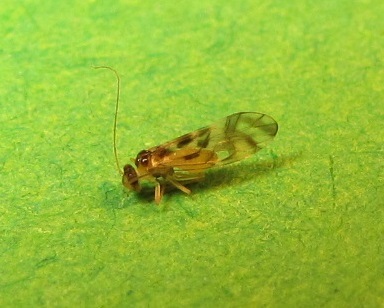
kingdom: Animalia
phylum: Arthropoda
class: Insecta
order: Psocodea
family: Stenopsocidae
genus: Graphopsocus
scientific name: Graphopsocus cruciatus
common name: Lizard bark louse
